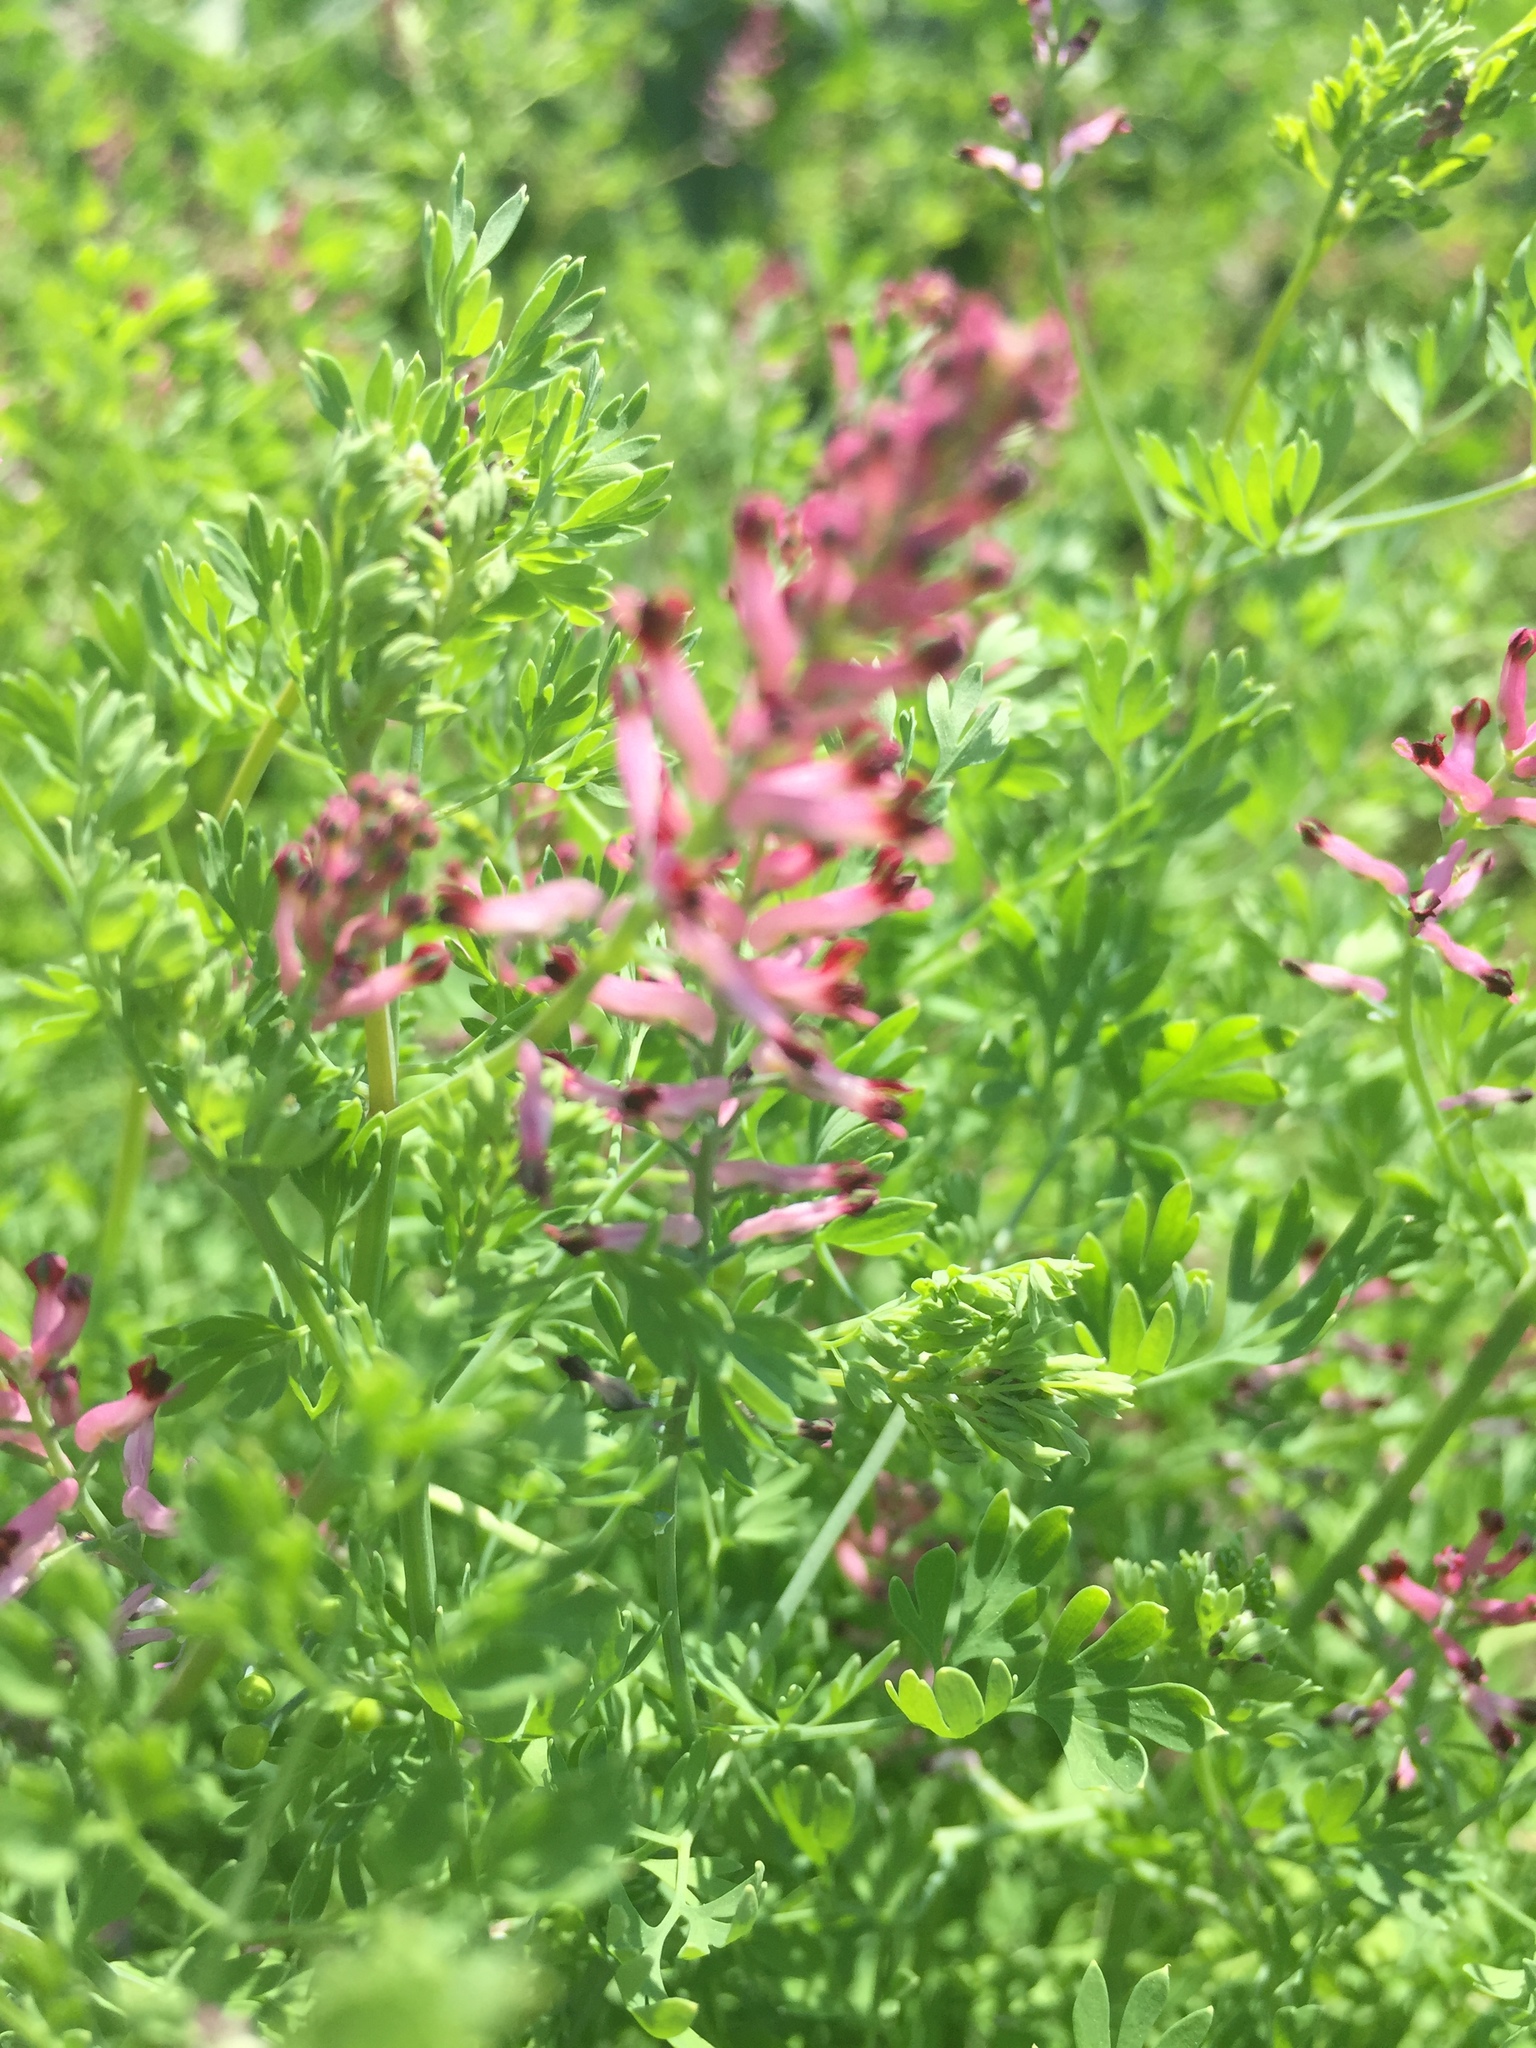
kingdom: Plantae
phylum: Tracheophyta
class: Magnoliopsida
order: Ranunculales
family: Papaveraceae
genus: Fumaria
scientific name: Fumaria schleicheri
